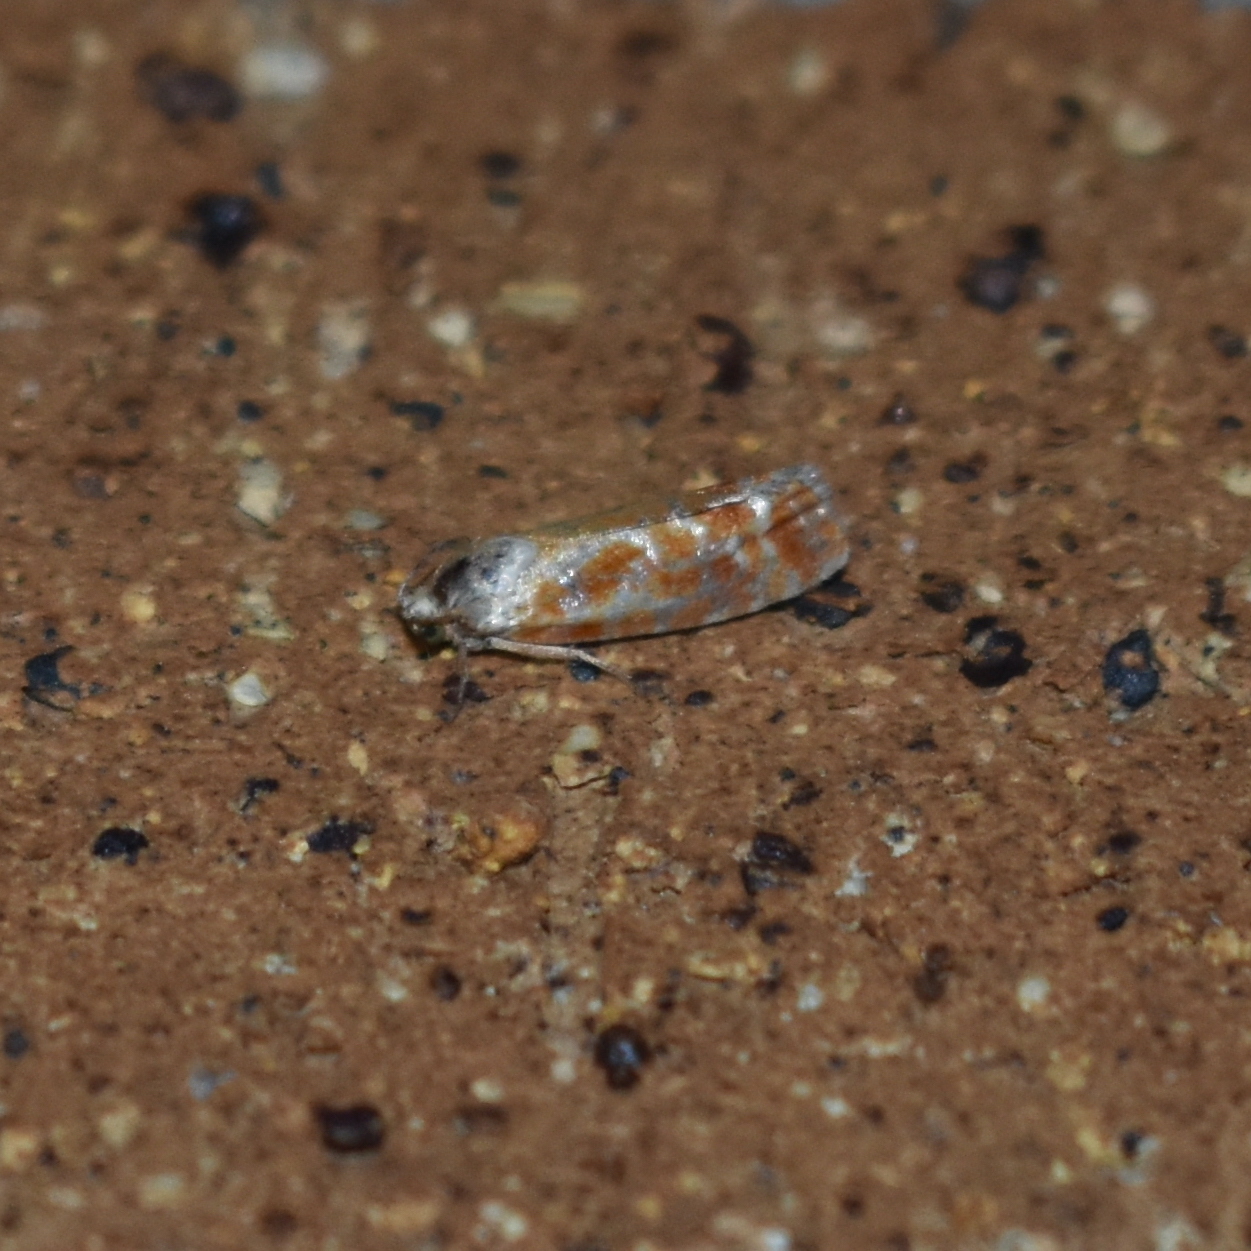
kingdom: Animalia
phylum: Arthropoda
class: Insecta
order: Lepidoptera
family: Tortricidae
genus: Rhyacionia
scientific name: Rhyacionia buoliana
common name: European pine shoot moth
